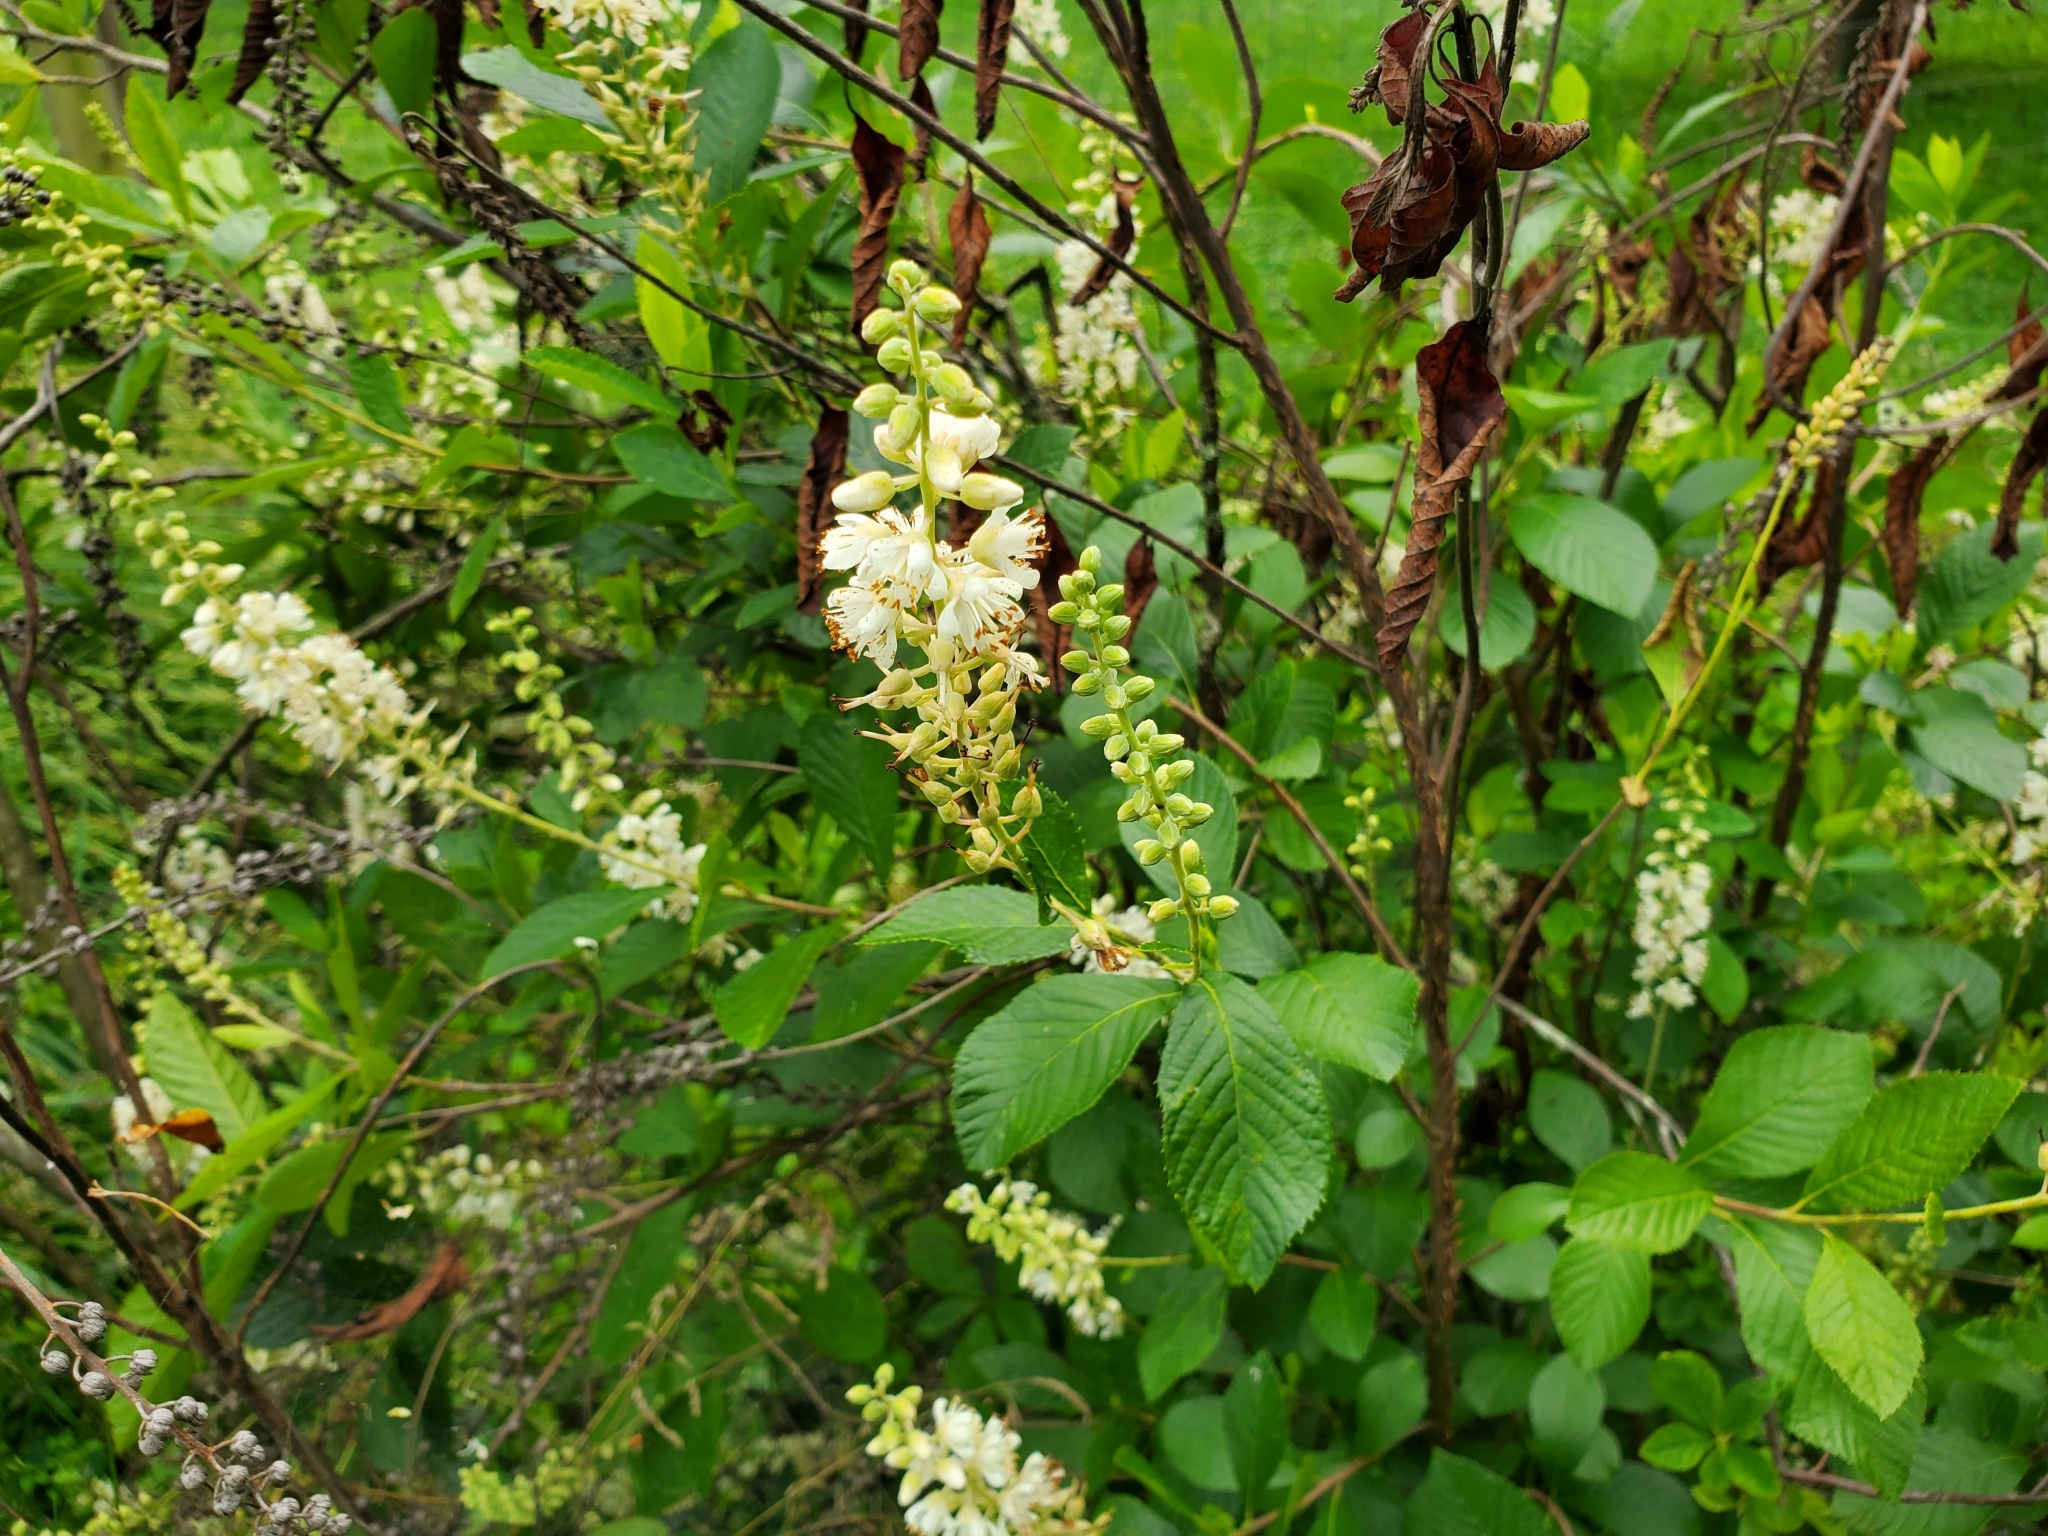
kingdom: Plantae
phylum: Tracheophyta
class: Magnoliopsida
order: Ericales
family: Clethraceae
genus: Clethra
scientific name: Clethra alnifolia
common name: Sweet pepperbush
